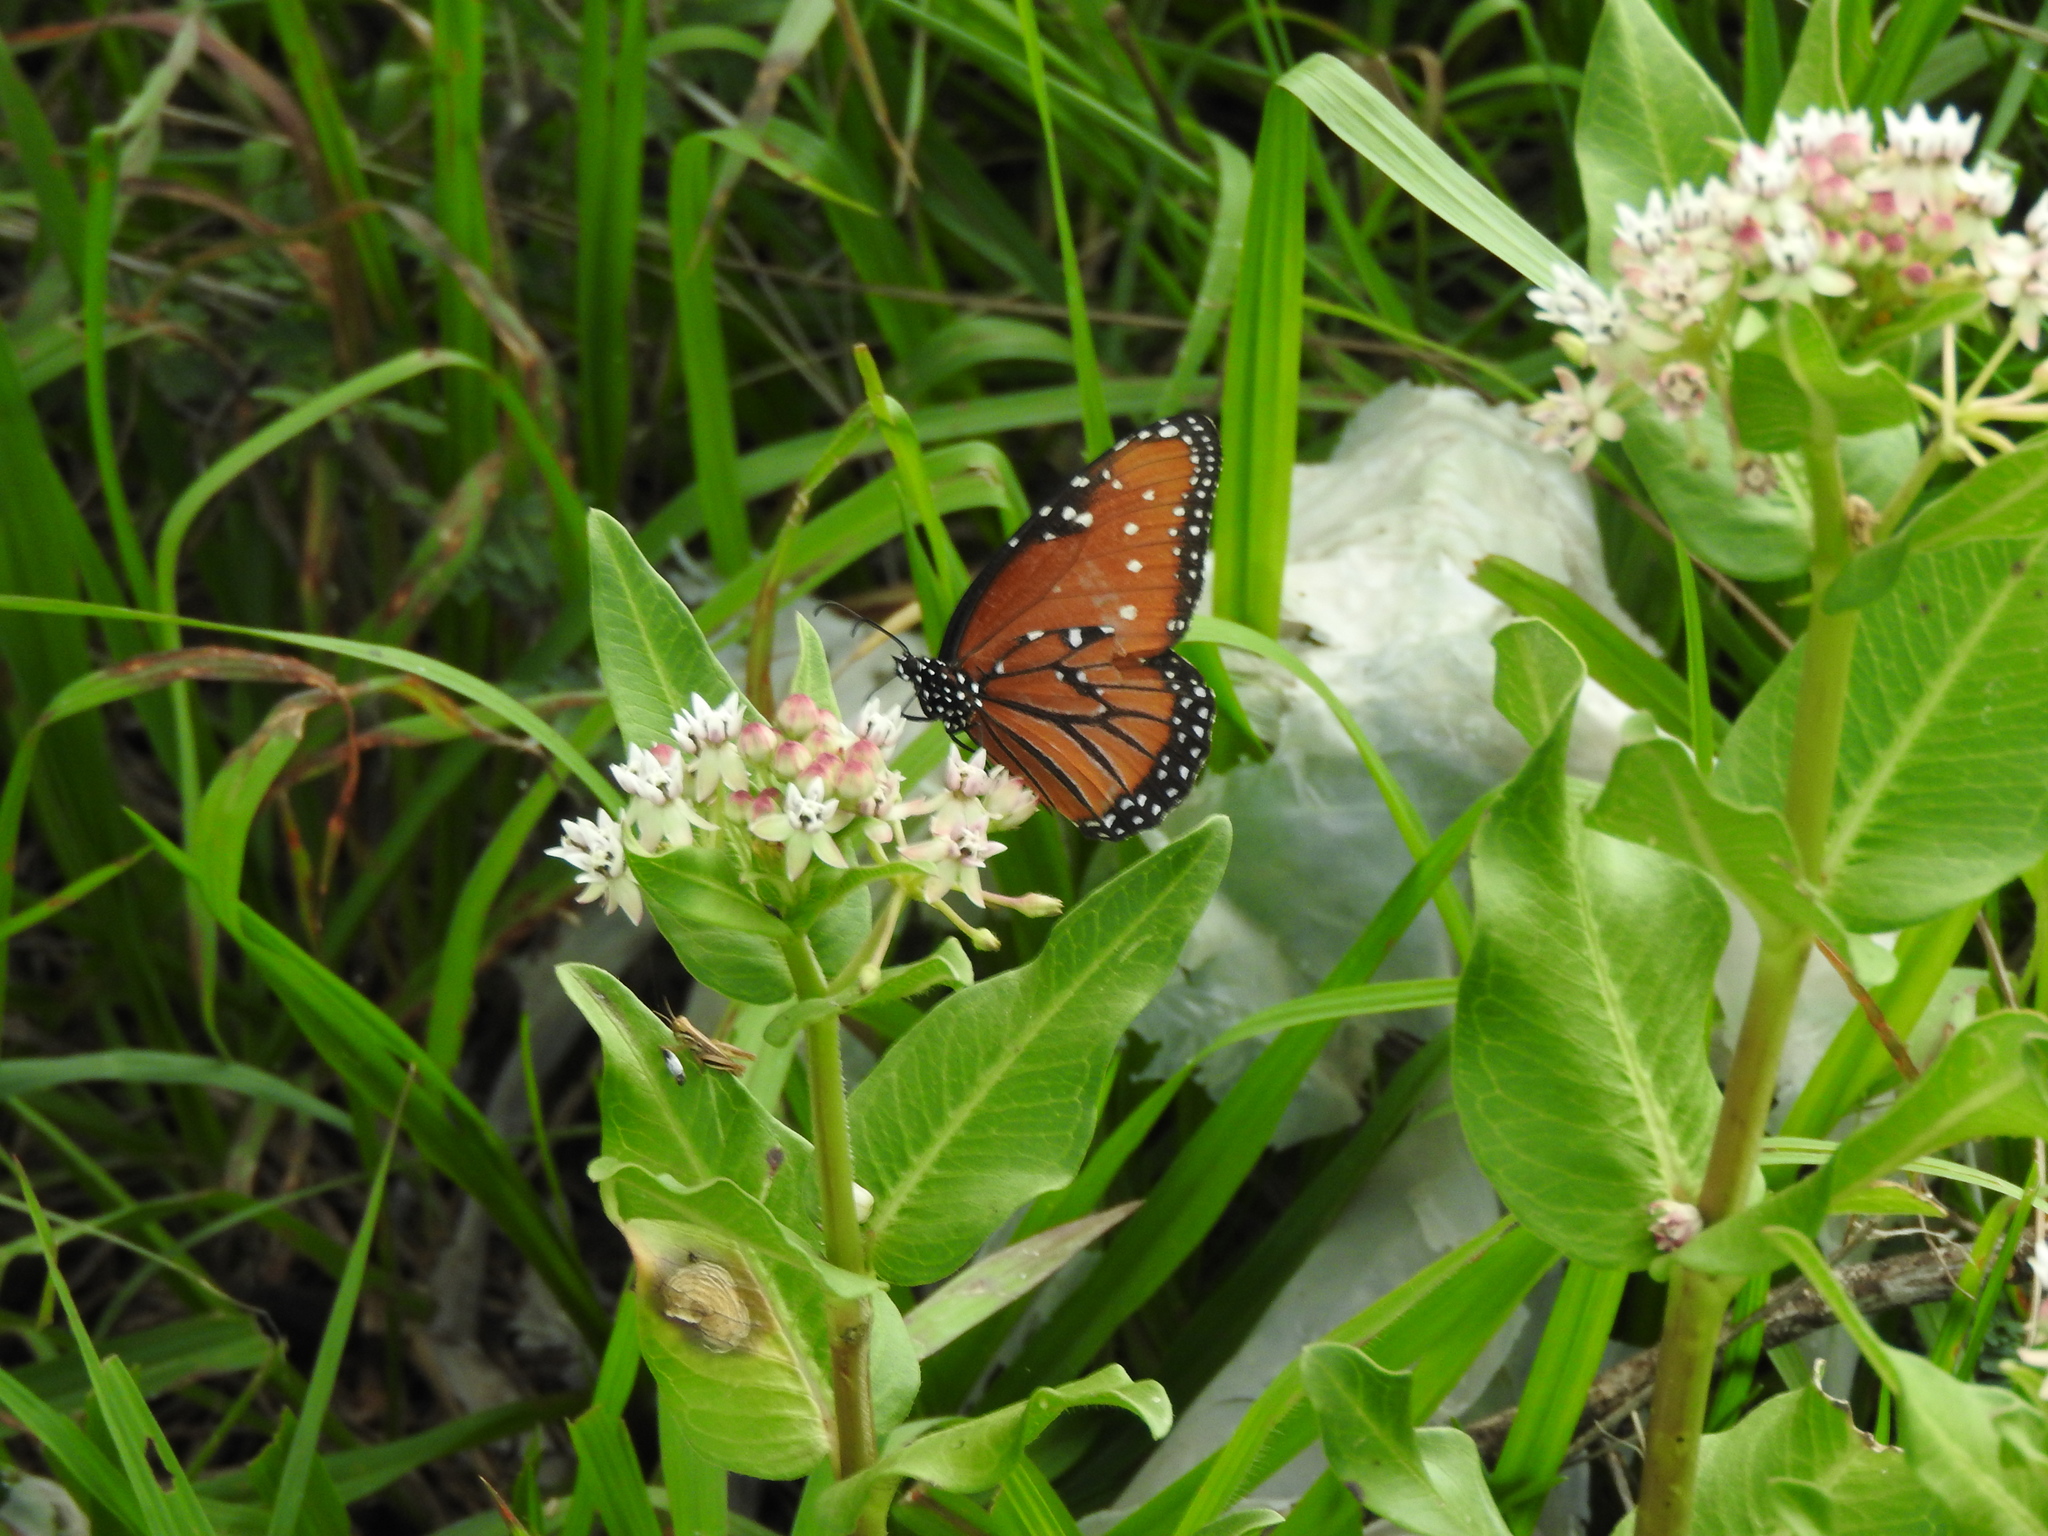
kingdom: Animalia
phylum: Arthropoda
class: Insecta
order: Lepidoptera
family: Nymphalidae
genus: Danaus
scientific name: Danaus gilippus
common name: Queen
